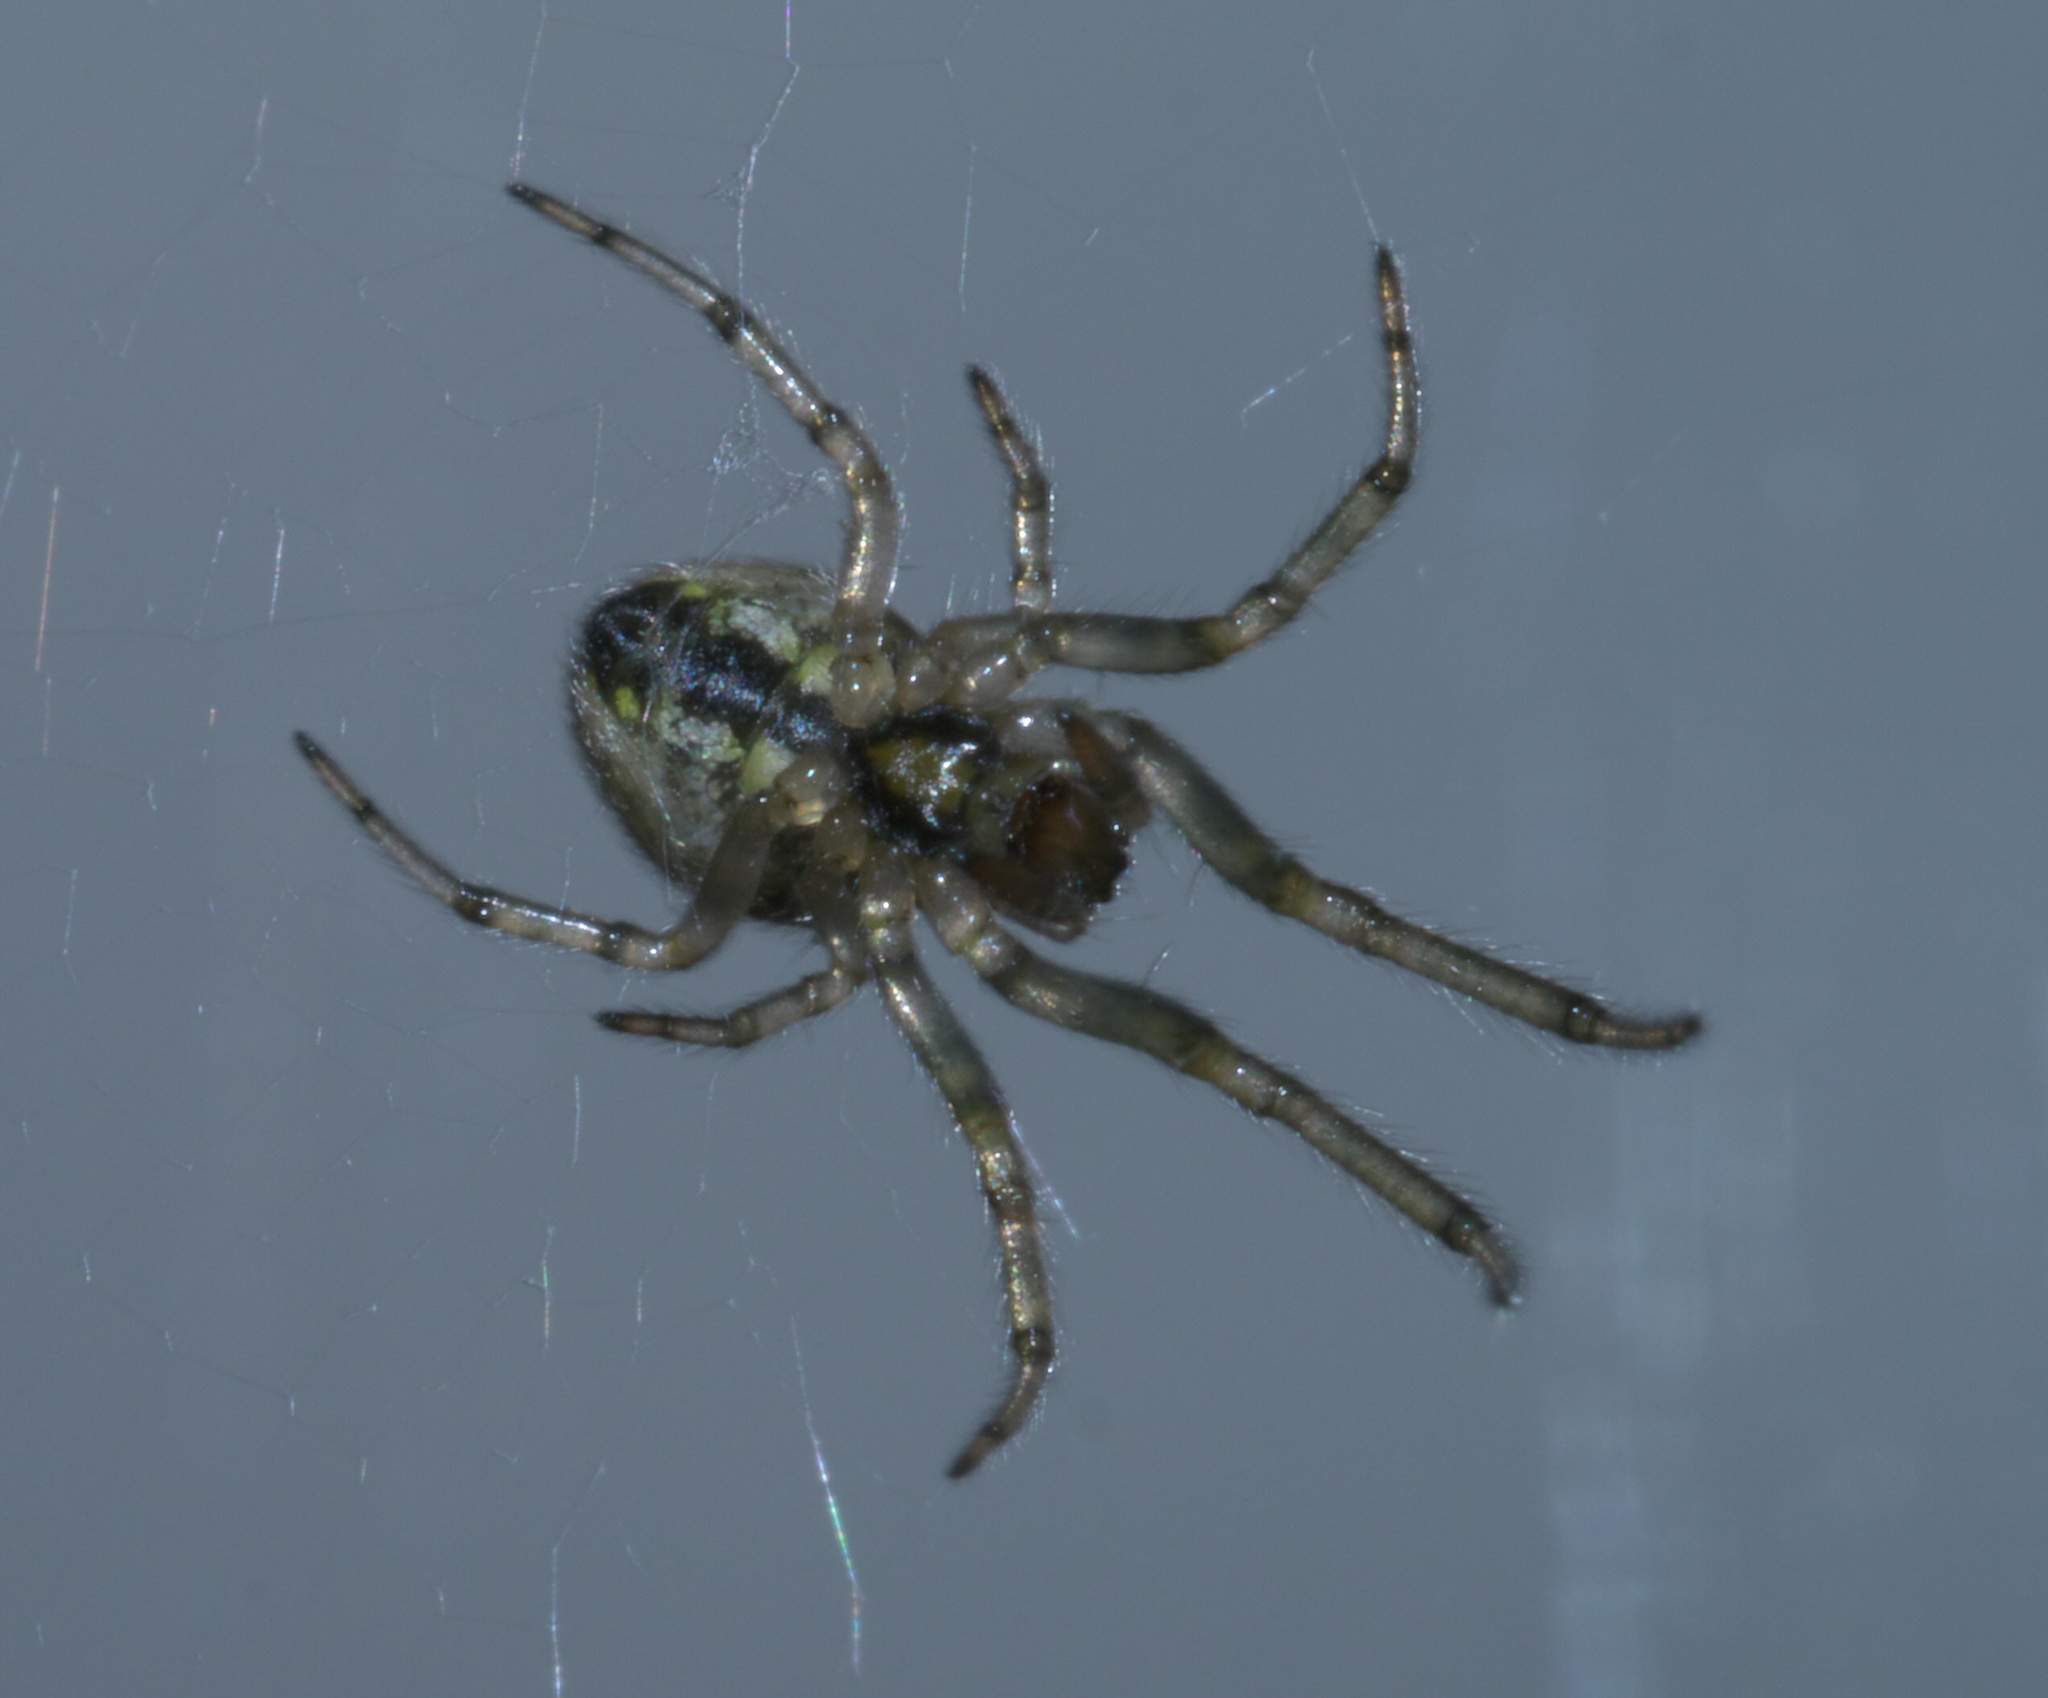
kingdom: Animalia
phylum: Arthropoda
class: Arachnida
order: Araneae
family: Araneidae
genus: Leviellus
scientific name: Leviellus stroemi
